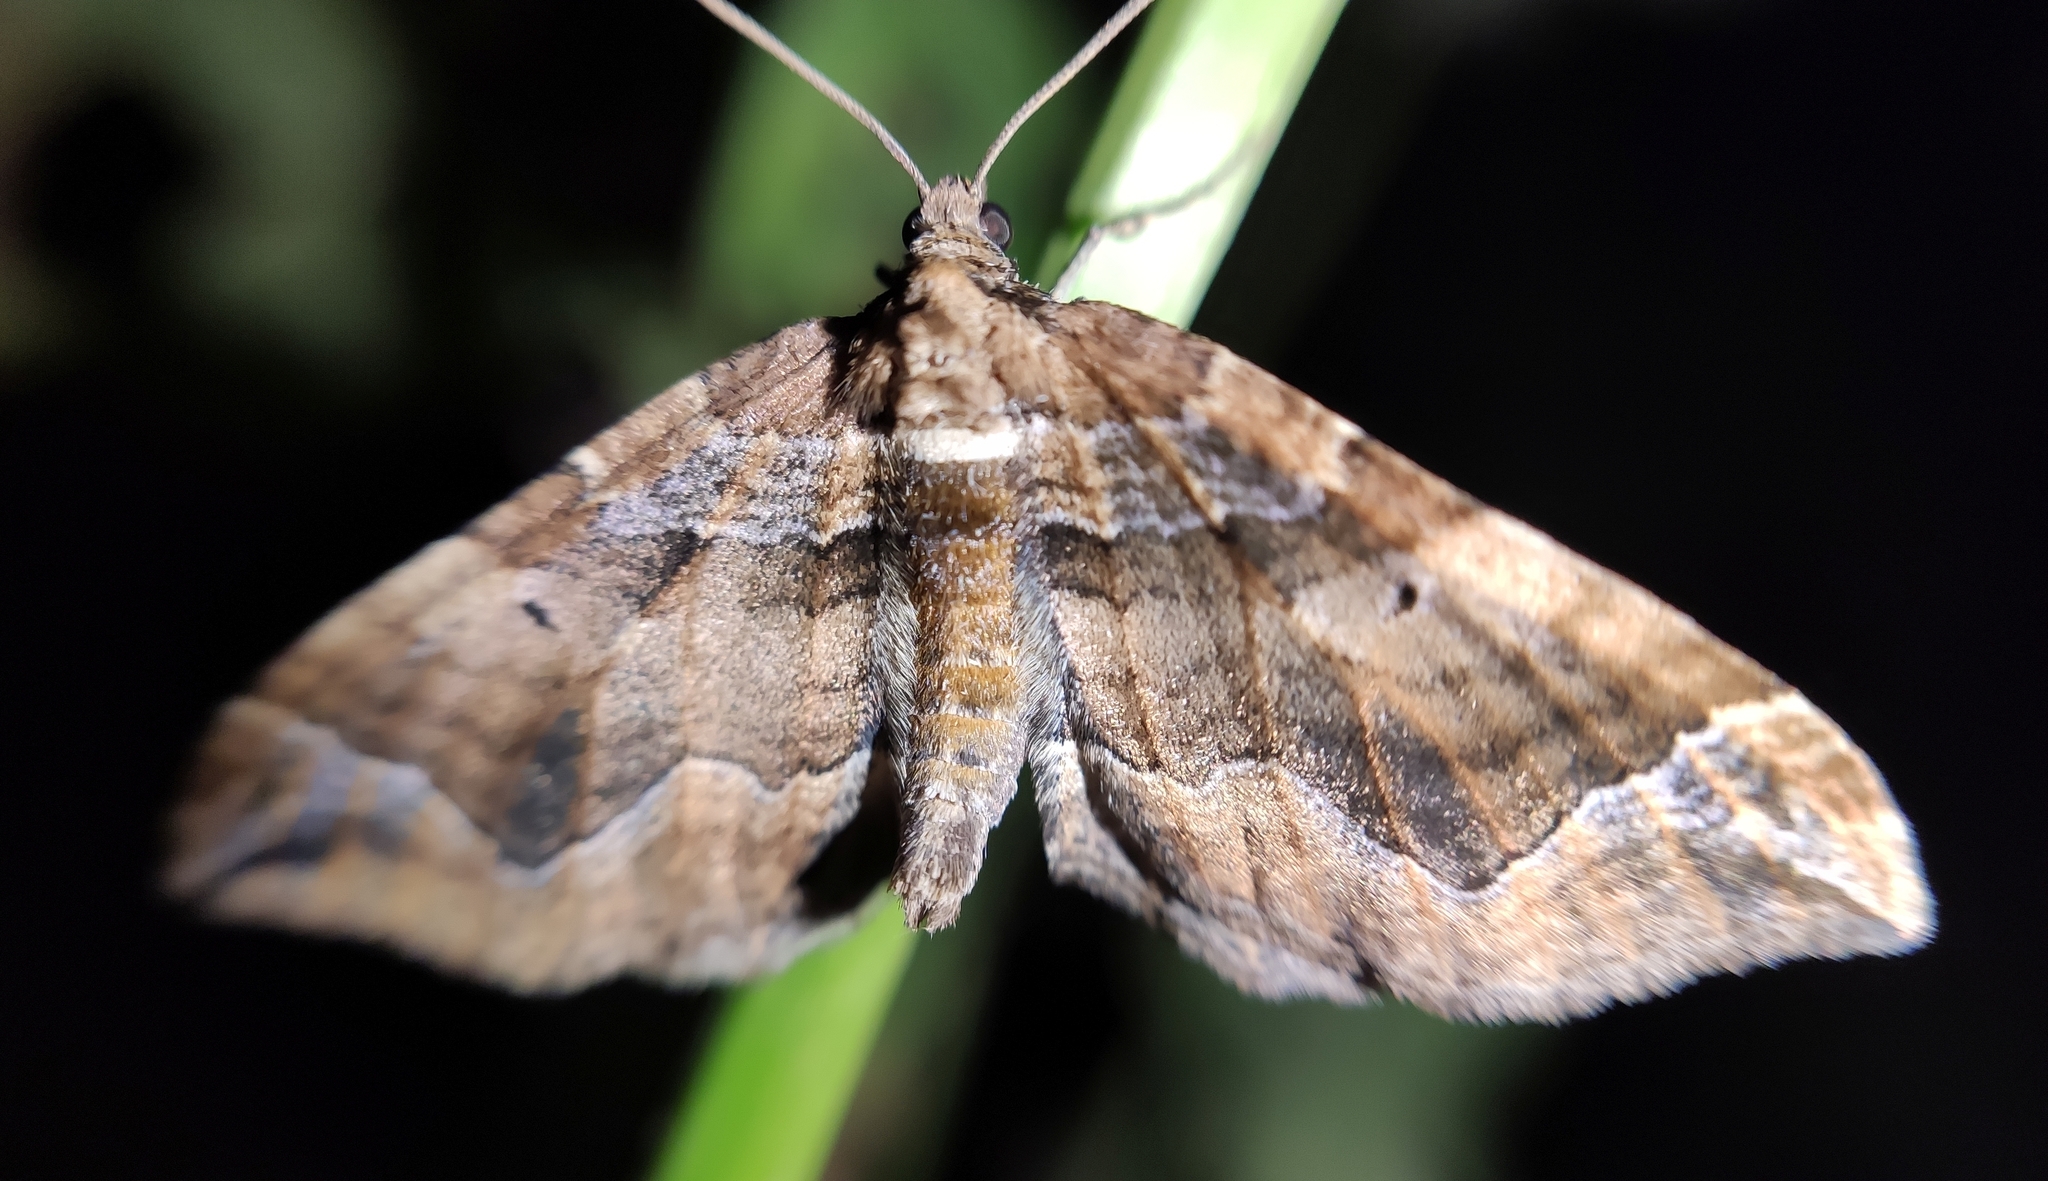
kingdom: Animalia
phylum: Arthropoda
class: Insecta
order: Lepidoptera
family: Geometridae
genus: Pelurga
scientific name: Pelurga comitata
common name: Dark spinach
